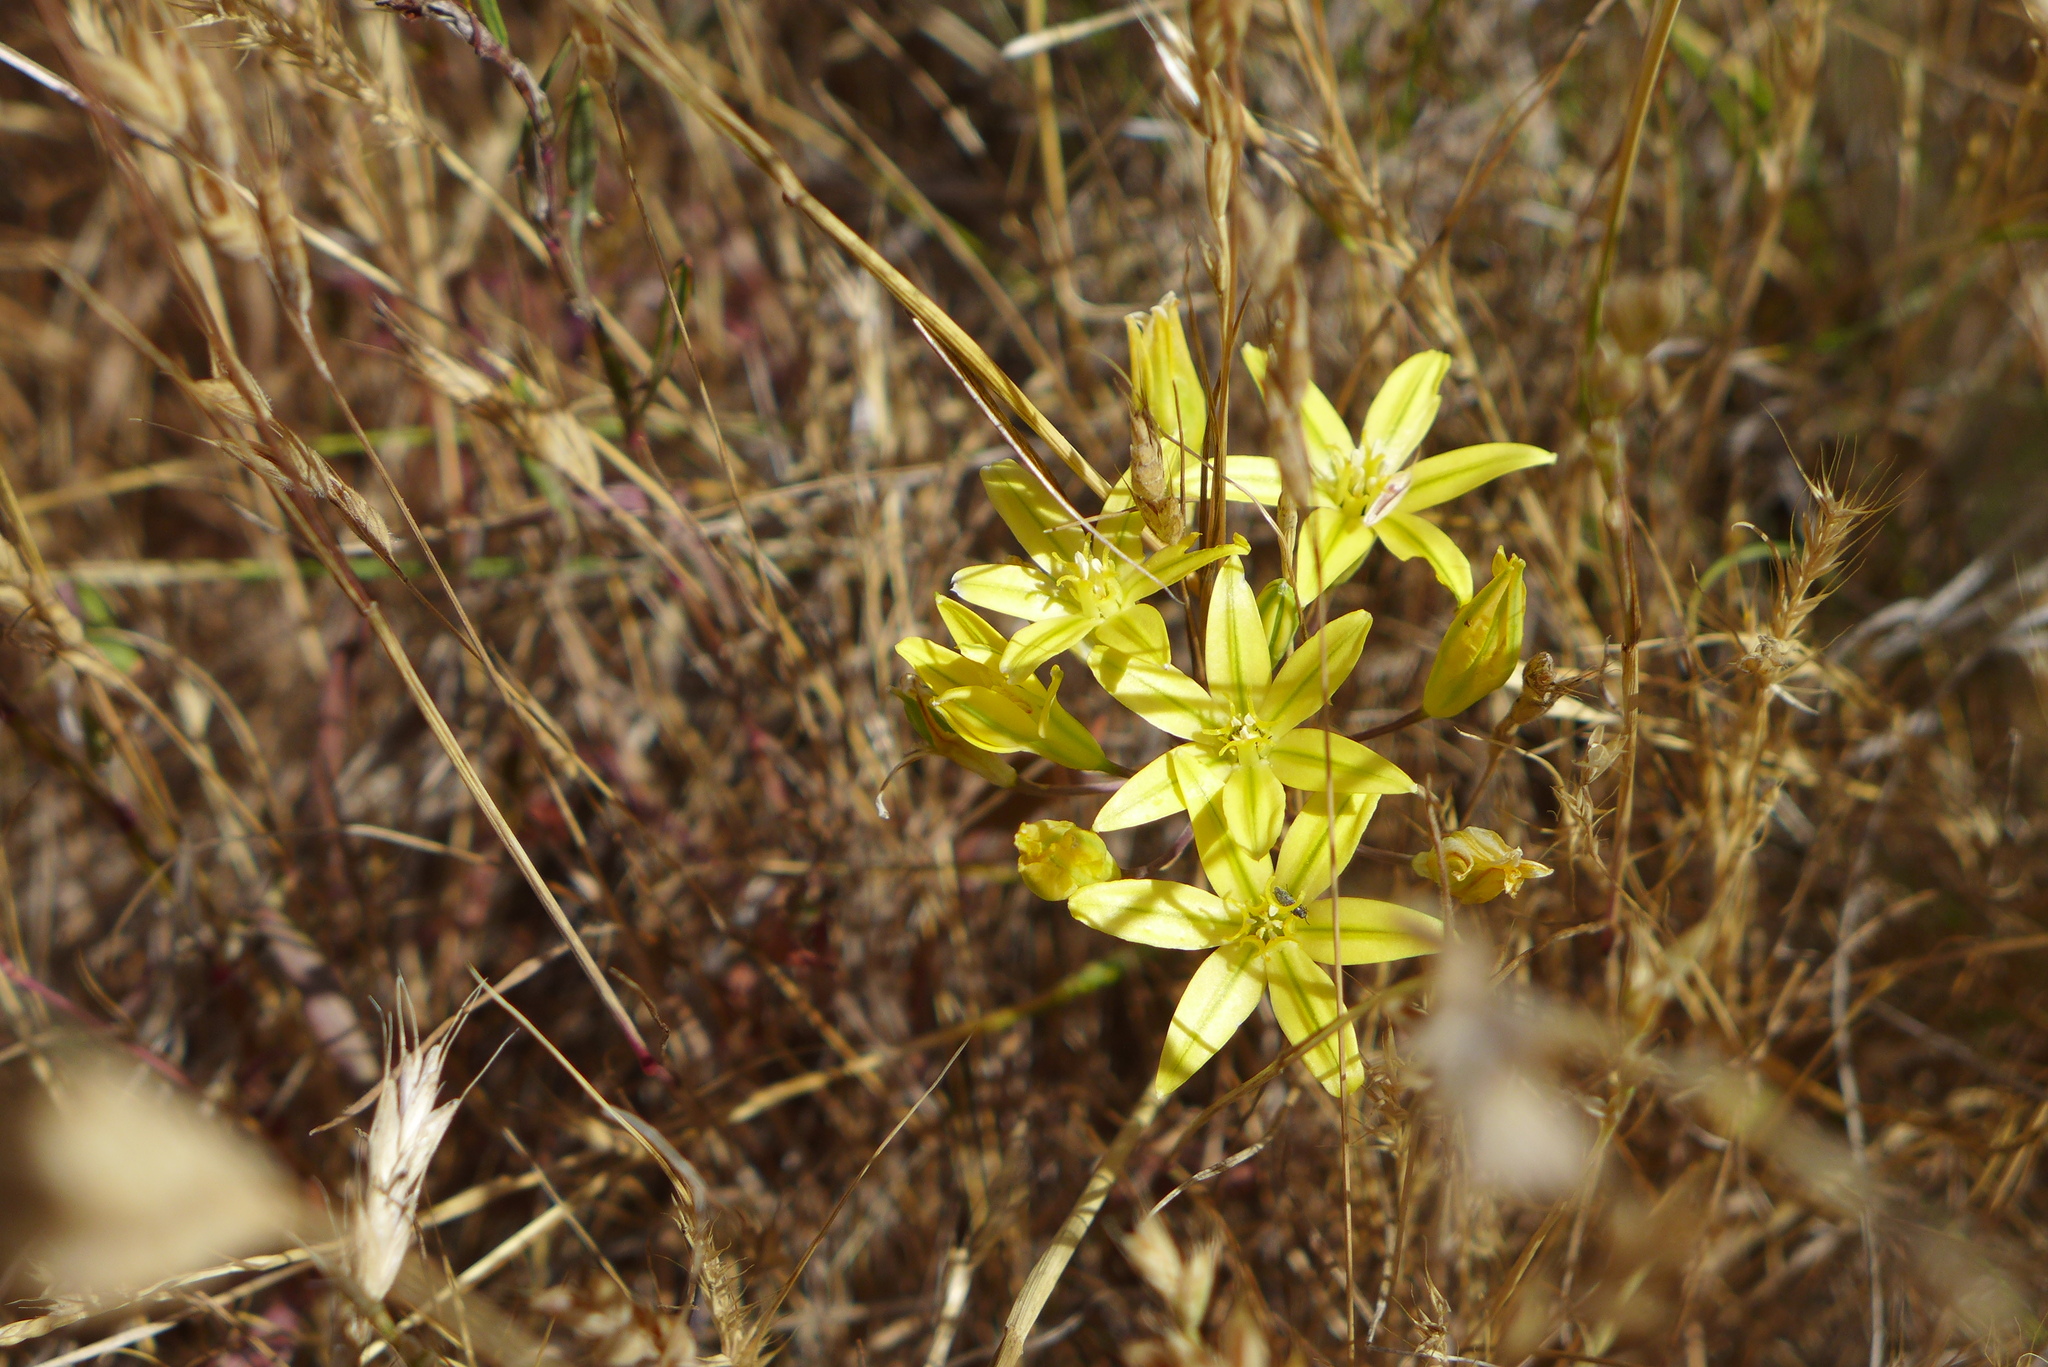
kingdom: Plantae
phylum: Tracheophyta
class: Liliopsida
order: Asparagales
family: Asparagaceae
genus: Triteleia
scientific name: Triteleia ixioides
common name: Yellow-brodiaea
